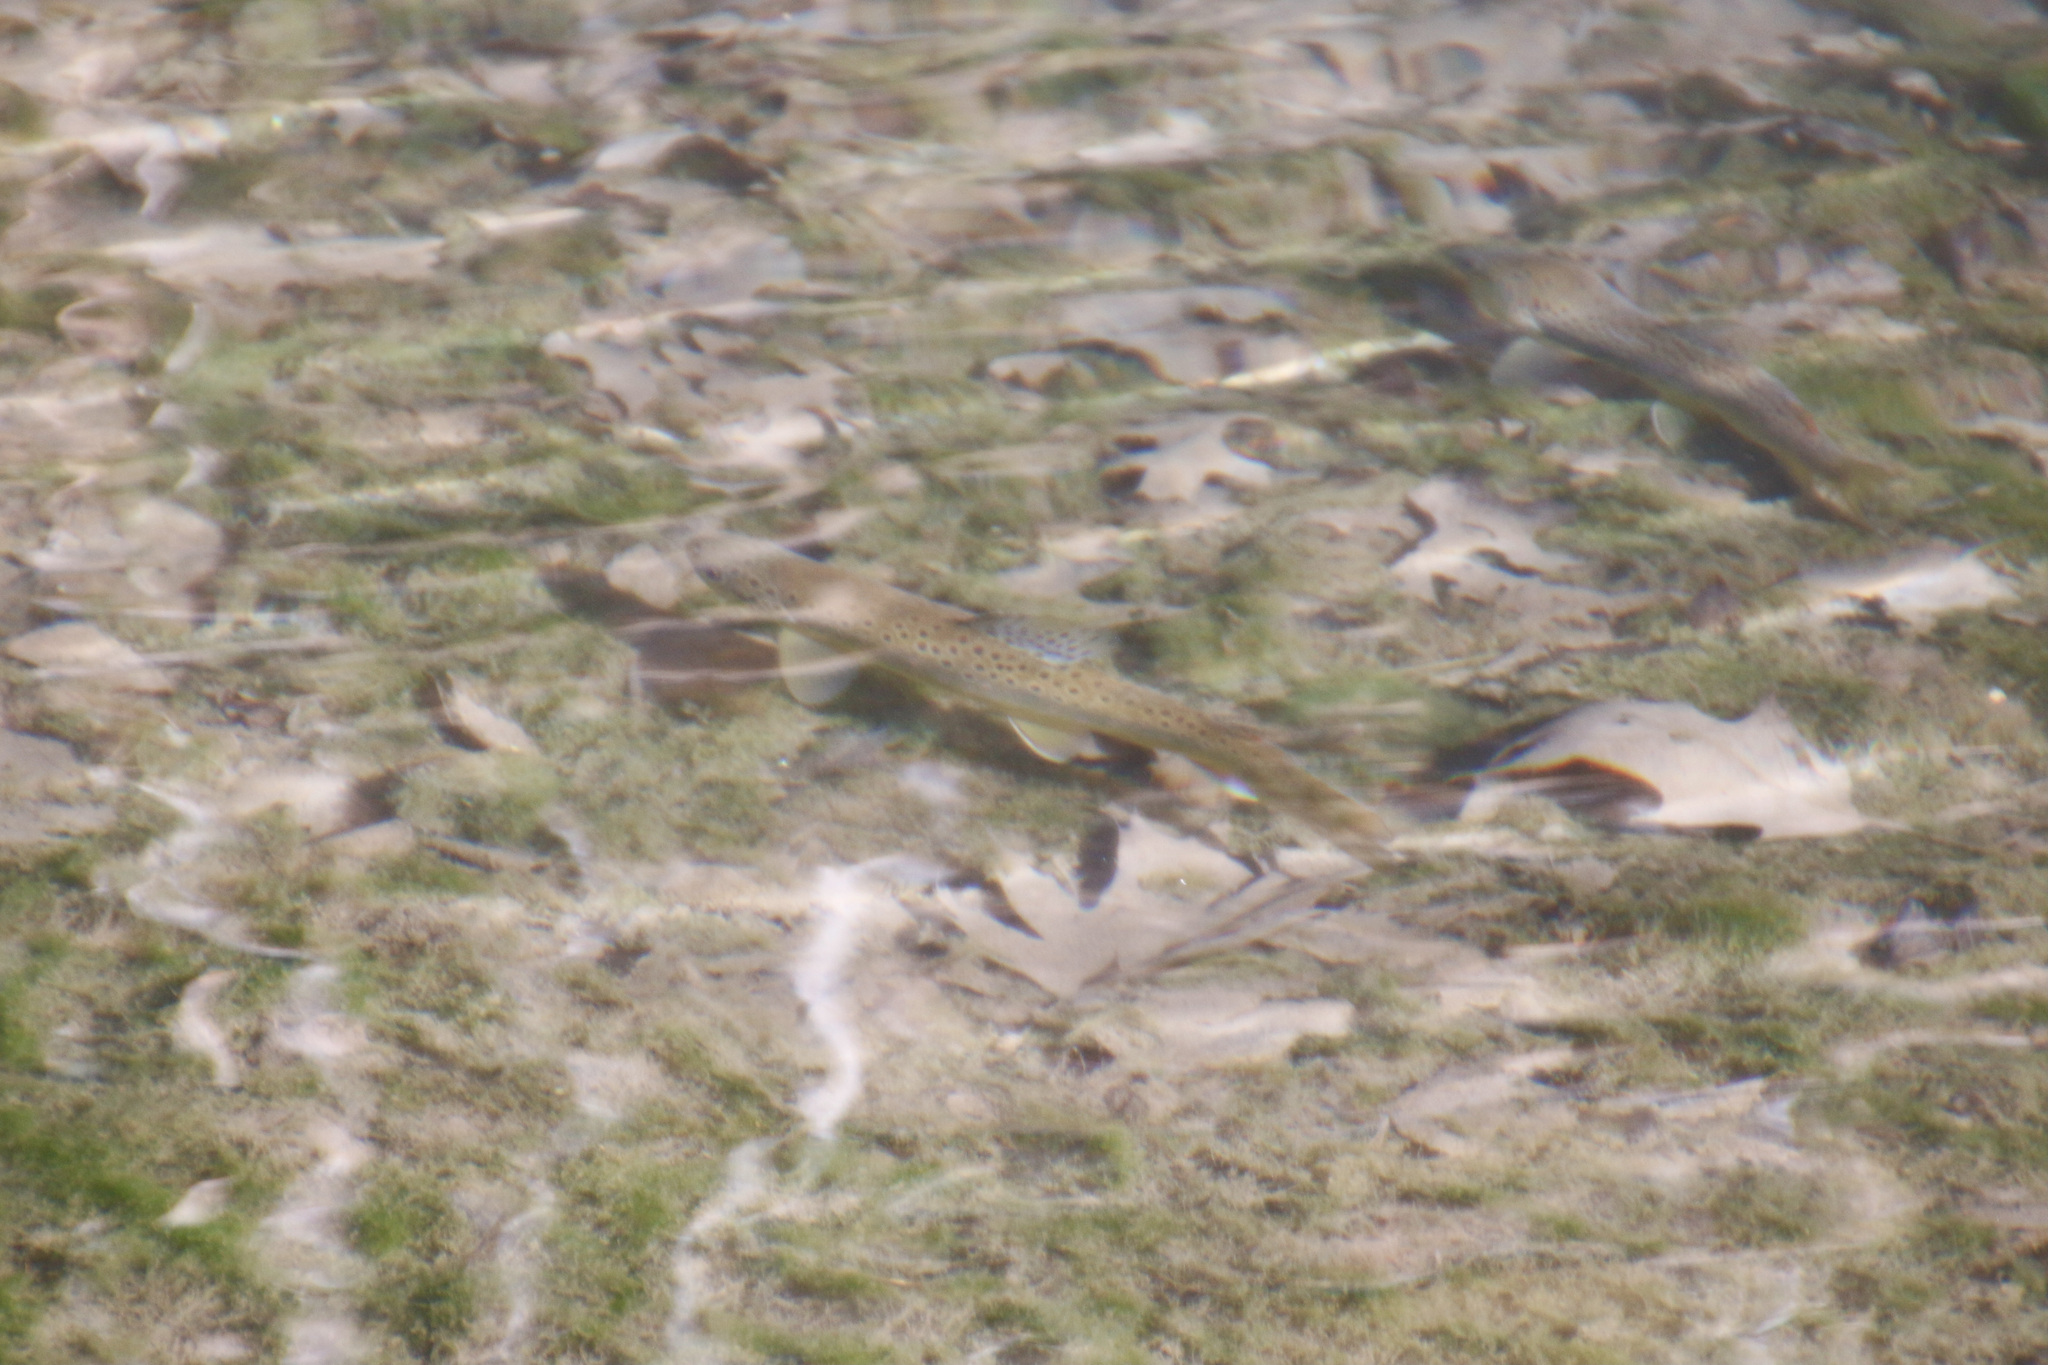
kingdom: Animalia
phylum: Chordata
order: Salmoniformes
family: Salmonidae
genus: Salmo
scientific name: Salmo trutta
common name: Brown trout
